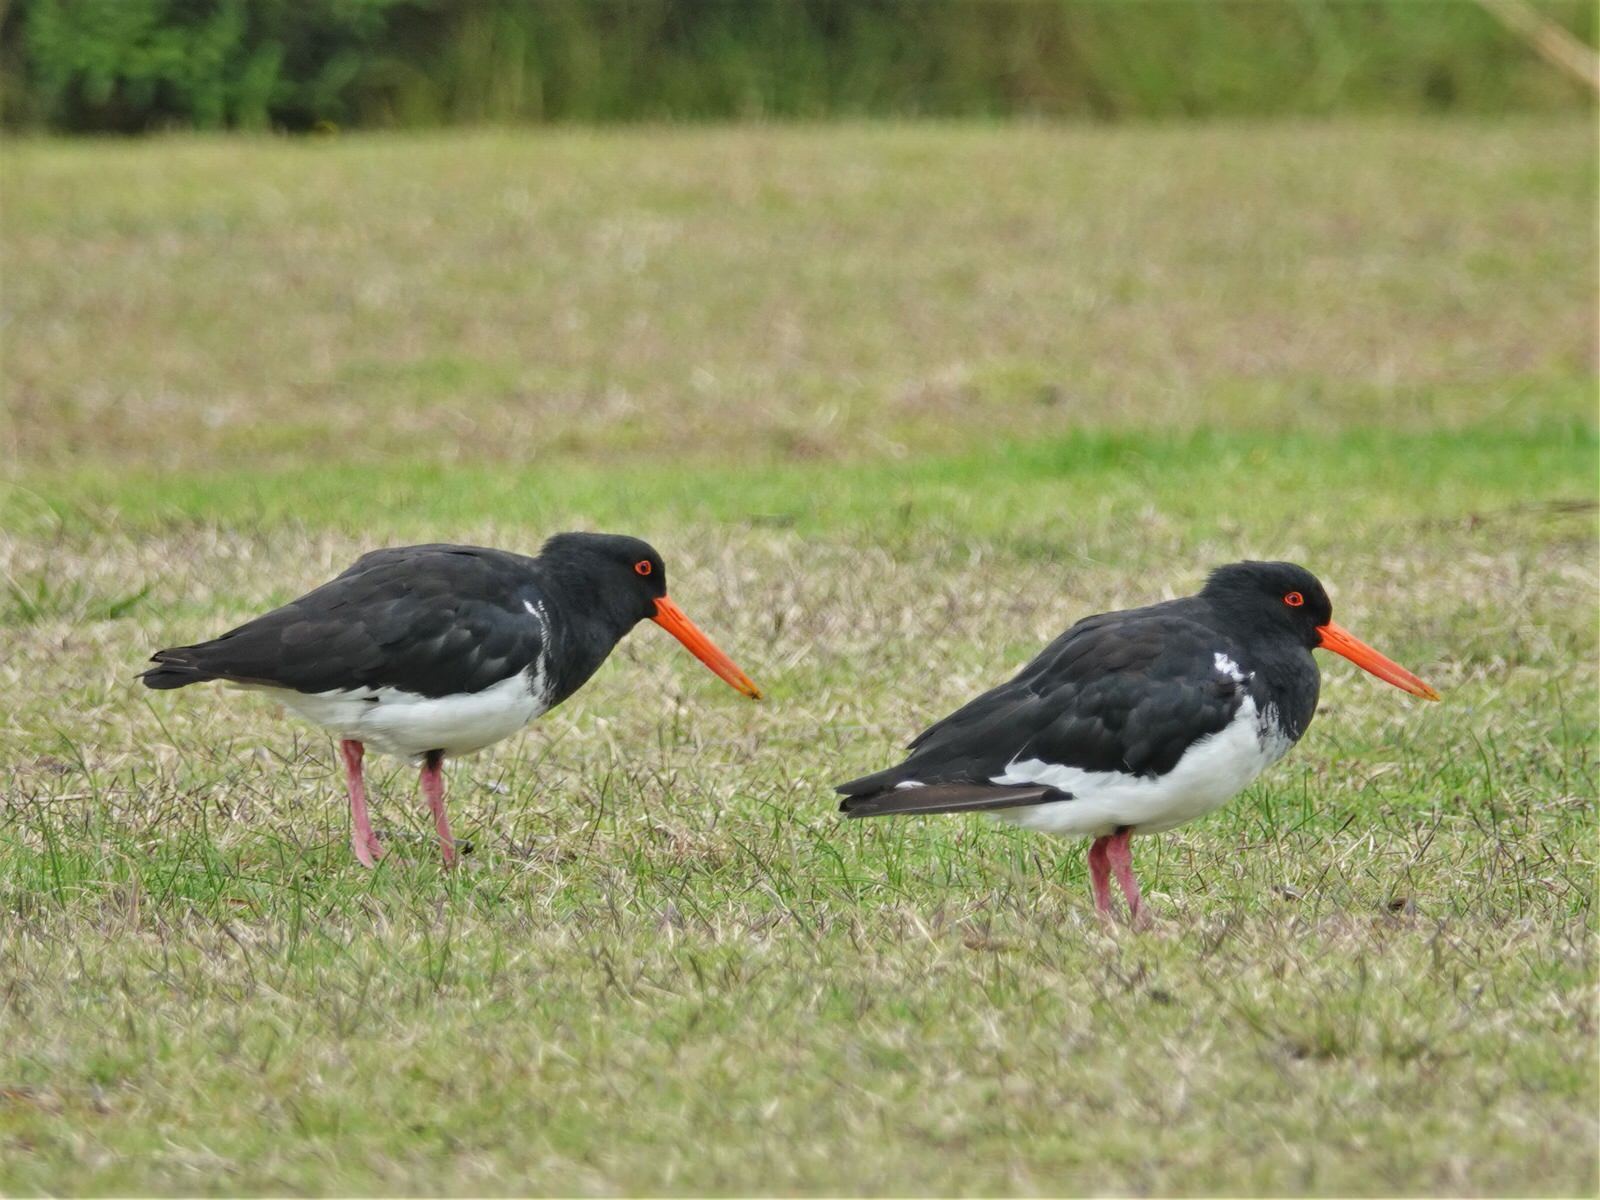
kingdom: Animalia
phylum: Chordata
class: Aves
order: Charadriiformes
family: Haematopodidae
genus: Haematopus
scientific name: Haematopus unicolor
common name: Variable oystercatcher
